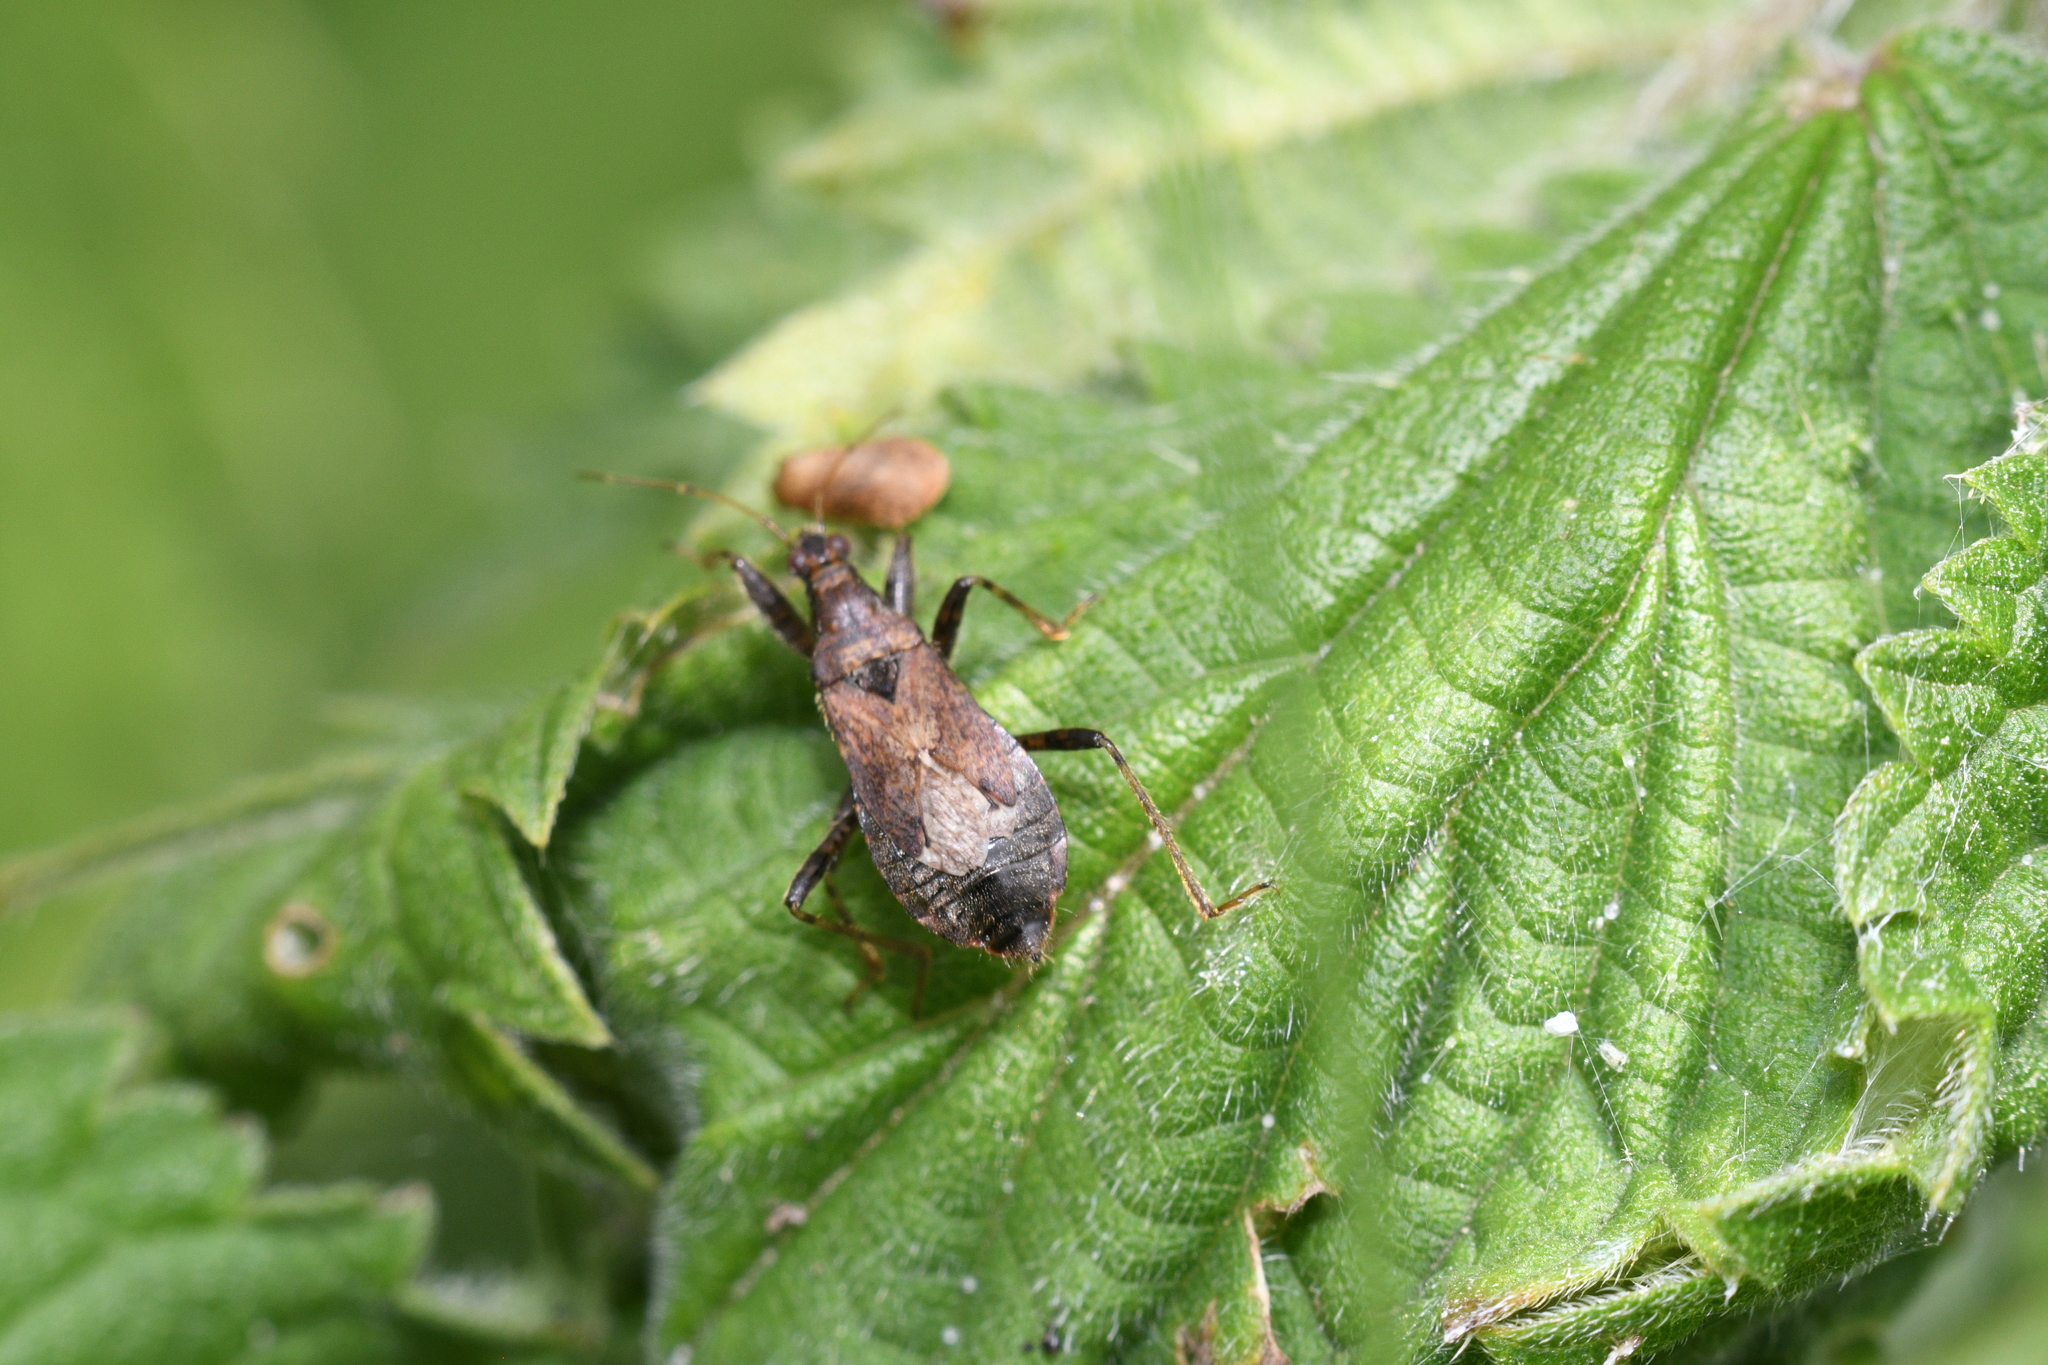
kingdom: Animalia
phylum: Arthropoda
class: Insecta
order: Hemiptera
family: Nabidae
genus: Himacerus
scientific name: Himacerus mirmicoides
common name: Ant damsel bug
